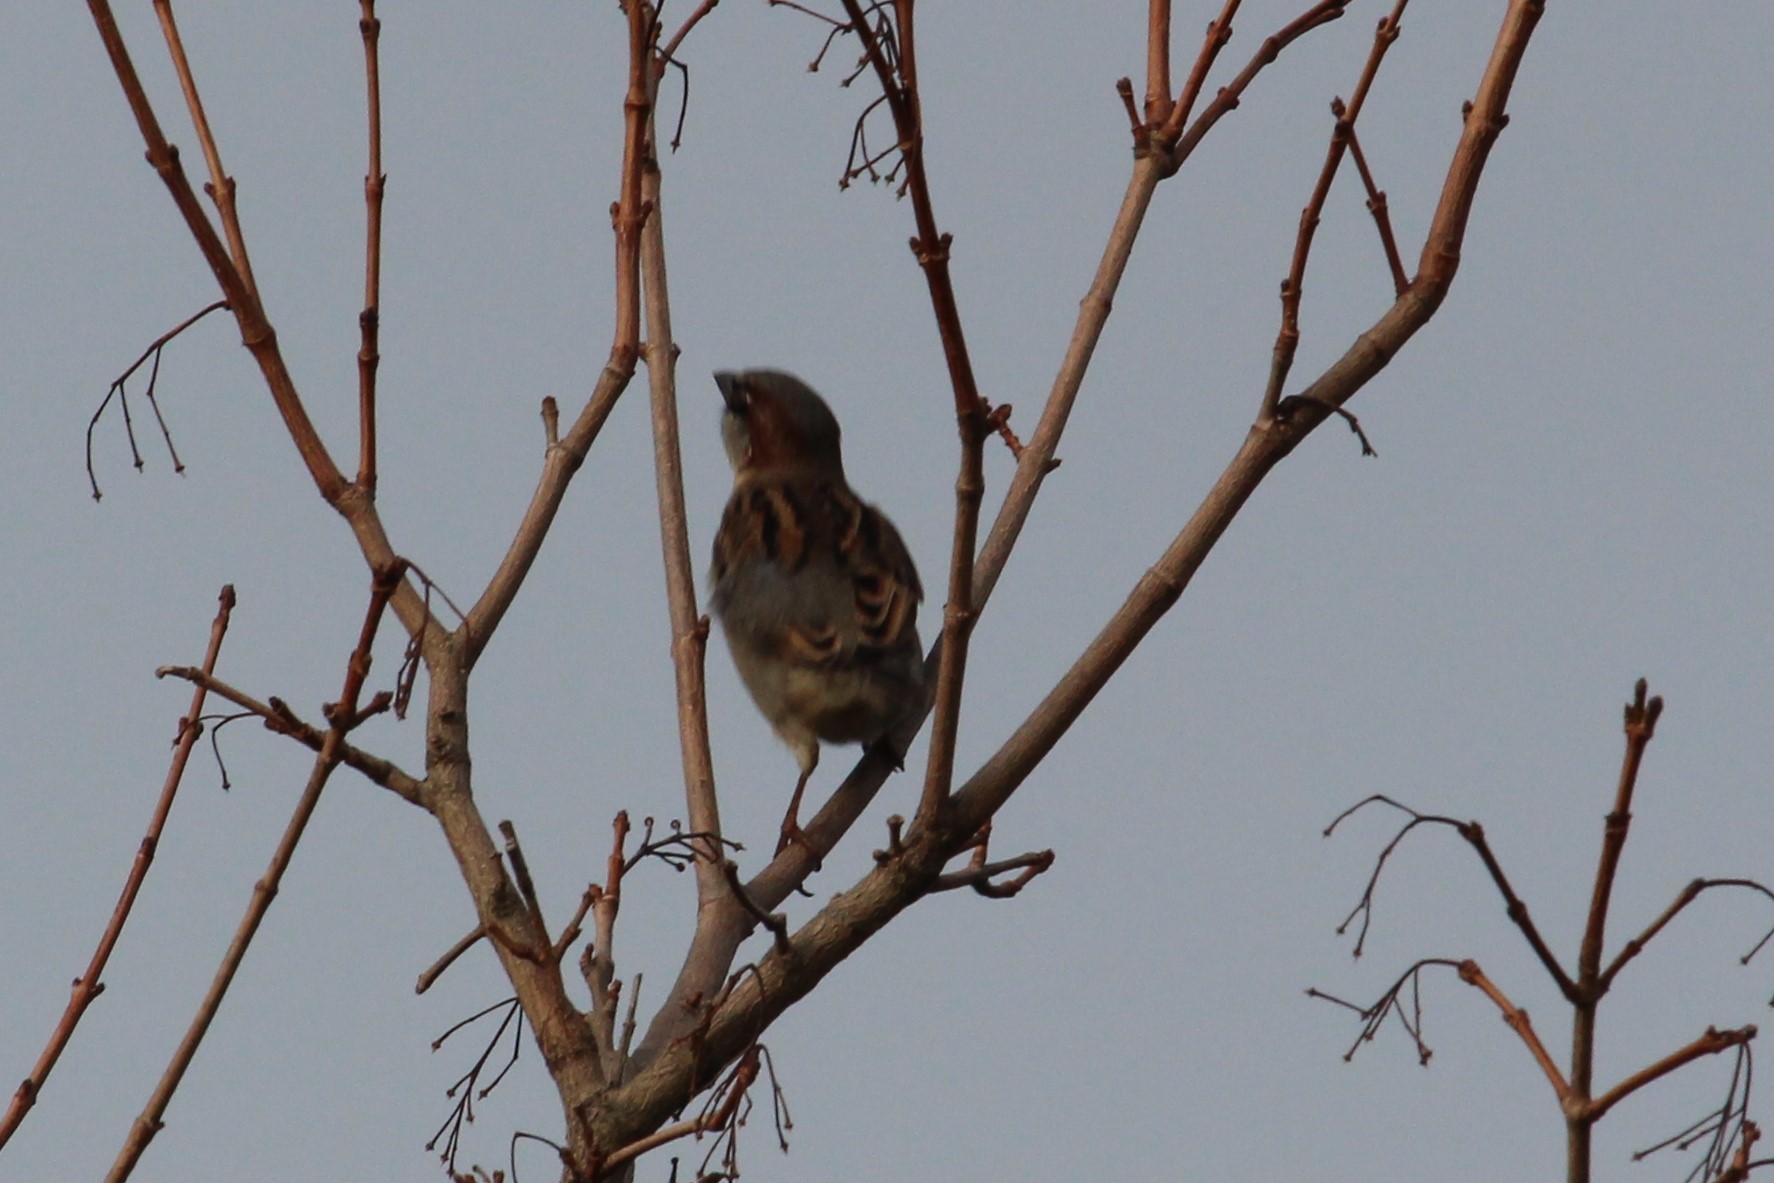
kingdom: Animalia
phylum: Chordata
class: Aves
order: Passeriformes
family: Passeridae
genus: Passer
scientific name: Passer domesticus
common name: House sparrow
